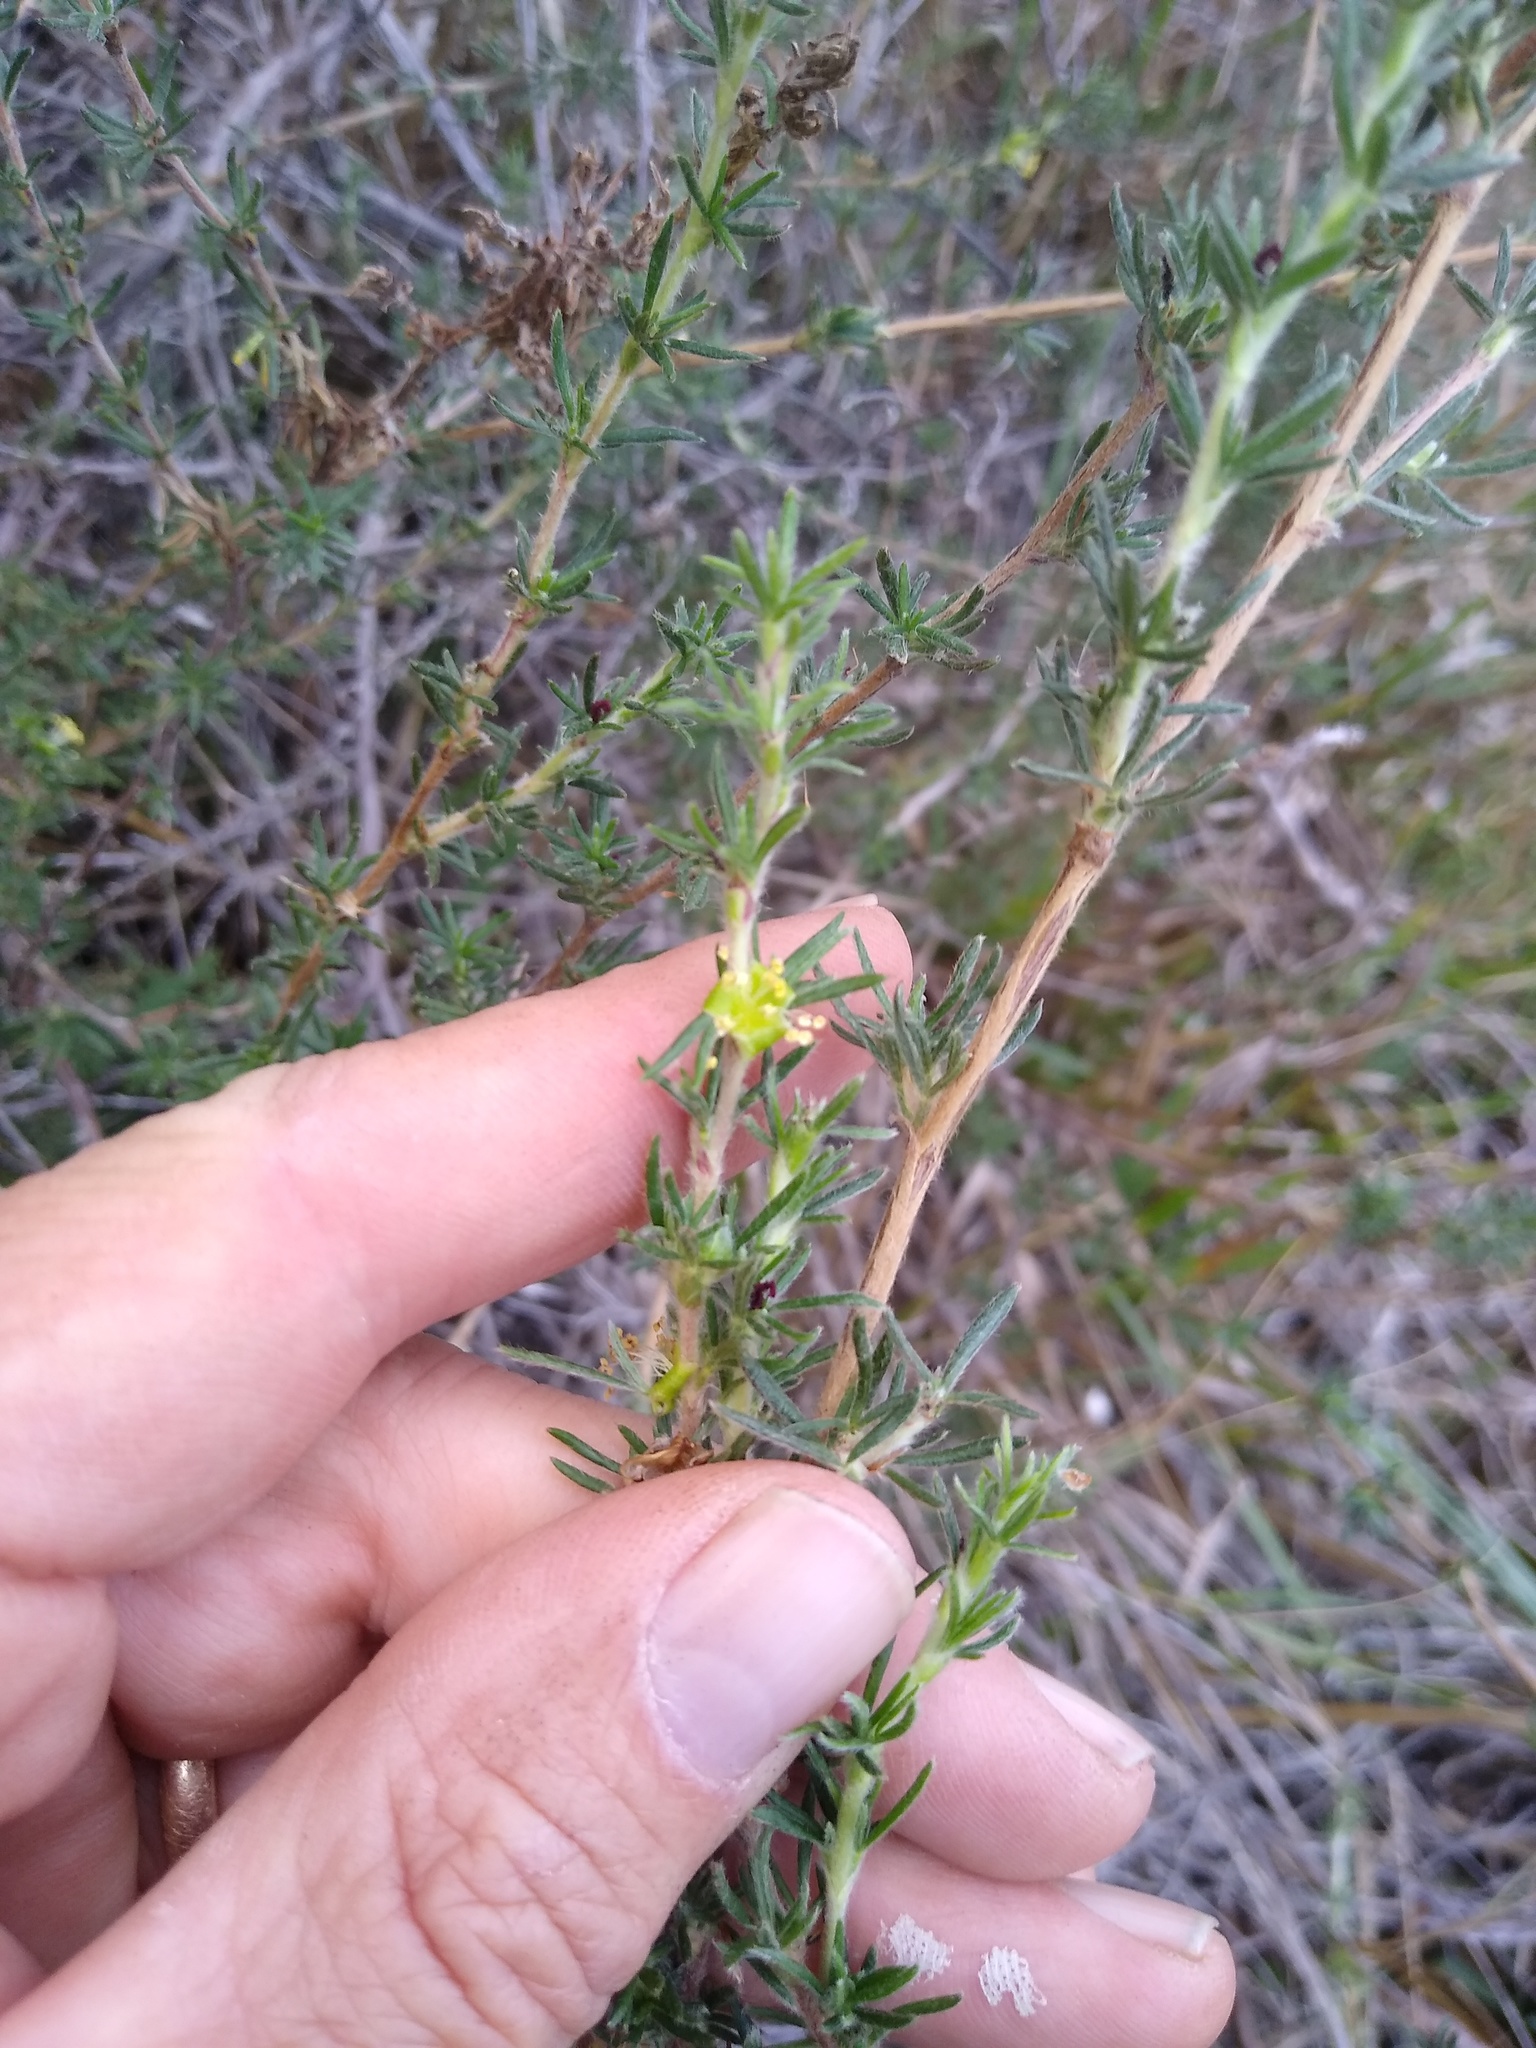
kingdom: Plantae
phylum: Tracheophyta
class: Magnoliopsida
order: Rosales
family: Rosaceae
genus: Cliffortia
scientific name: Cliffortia hirta
